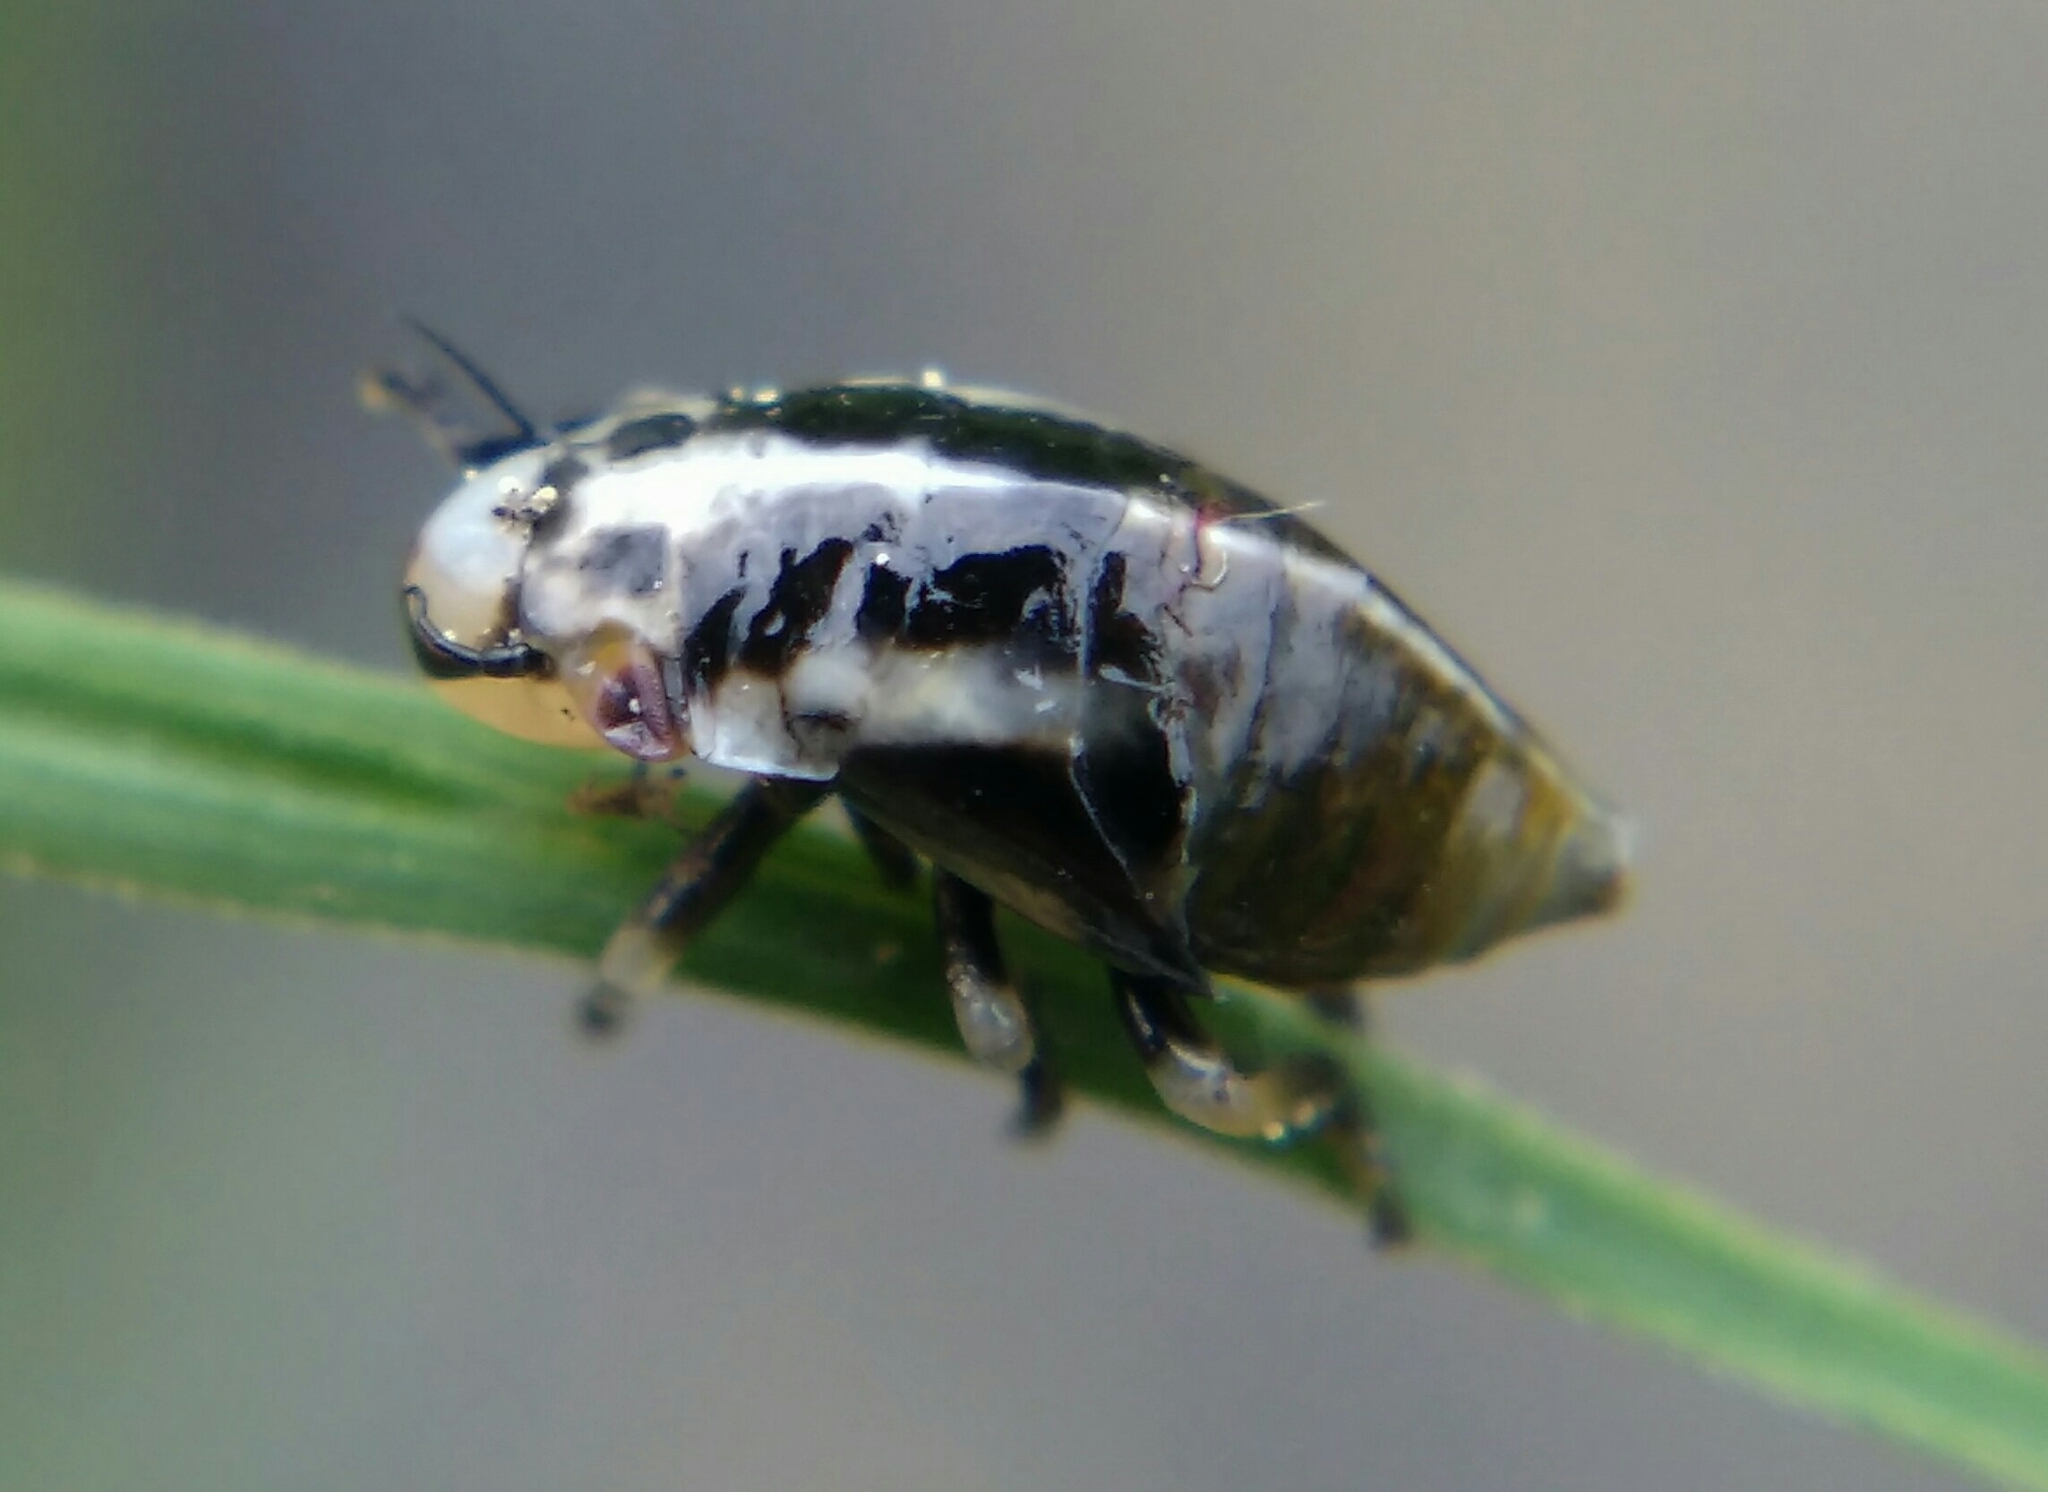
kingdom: Animalia
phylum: Arthropoda
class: Insecta
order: Hemiptera
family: Aphrophoridae
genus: Lepyronia
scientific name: Lepyronia coleoptrata
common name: Leafhopper
